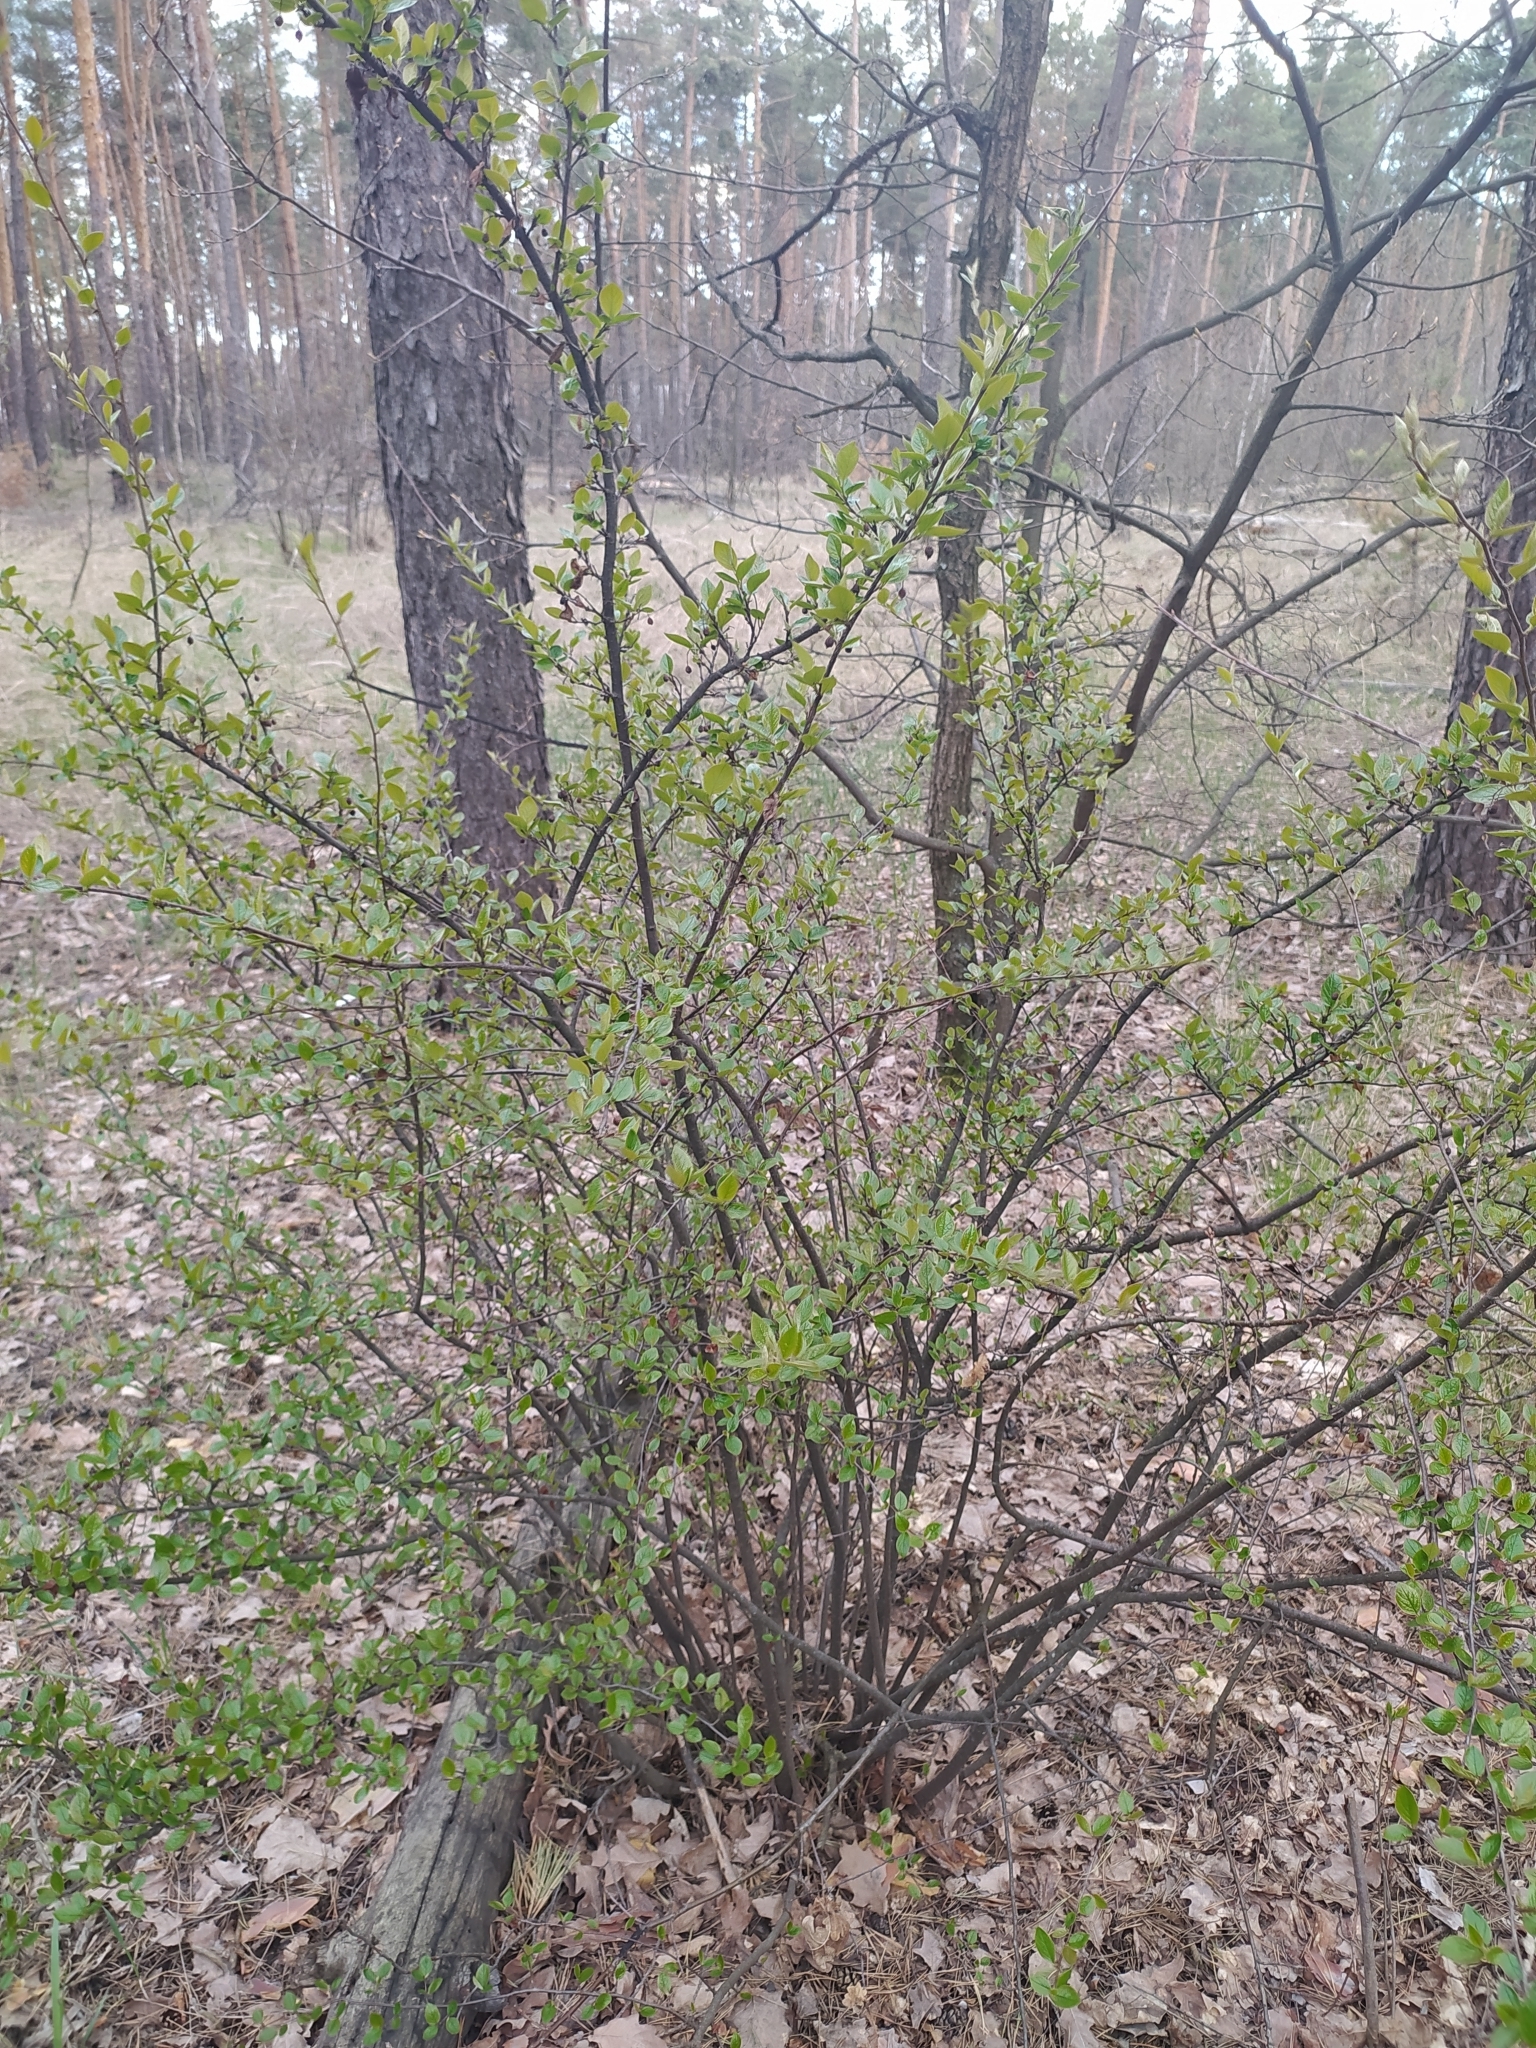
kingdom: Plantae
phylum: Tracheophyta
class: Magnoliopsida
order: Rosales
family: Rosaceae
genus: Cotoneaster
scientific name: Cotoneaster acutifolius
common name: Peking cotoneaster
